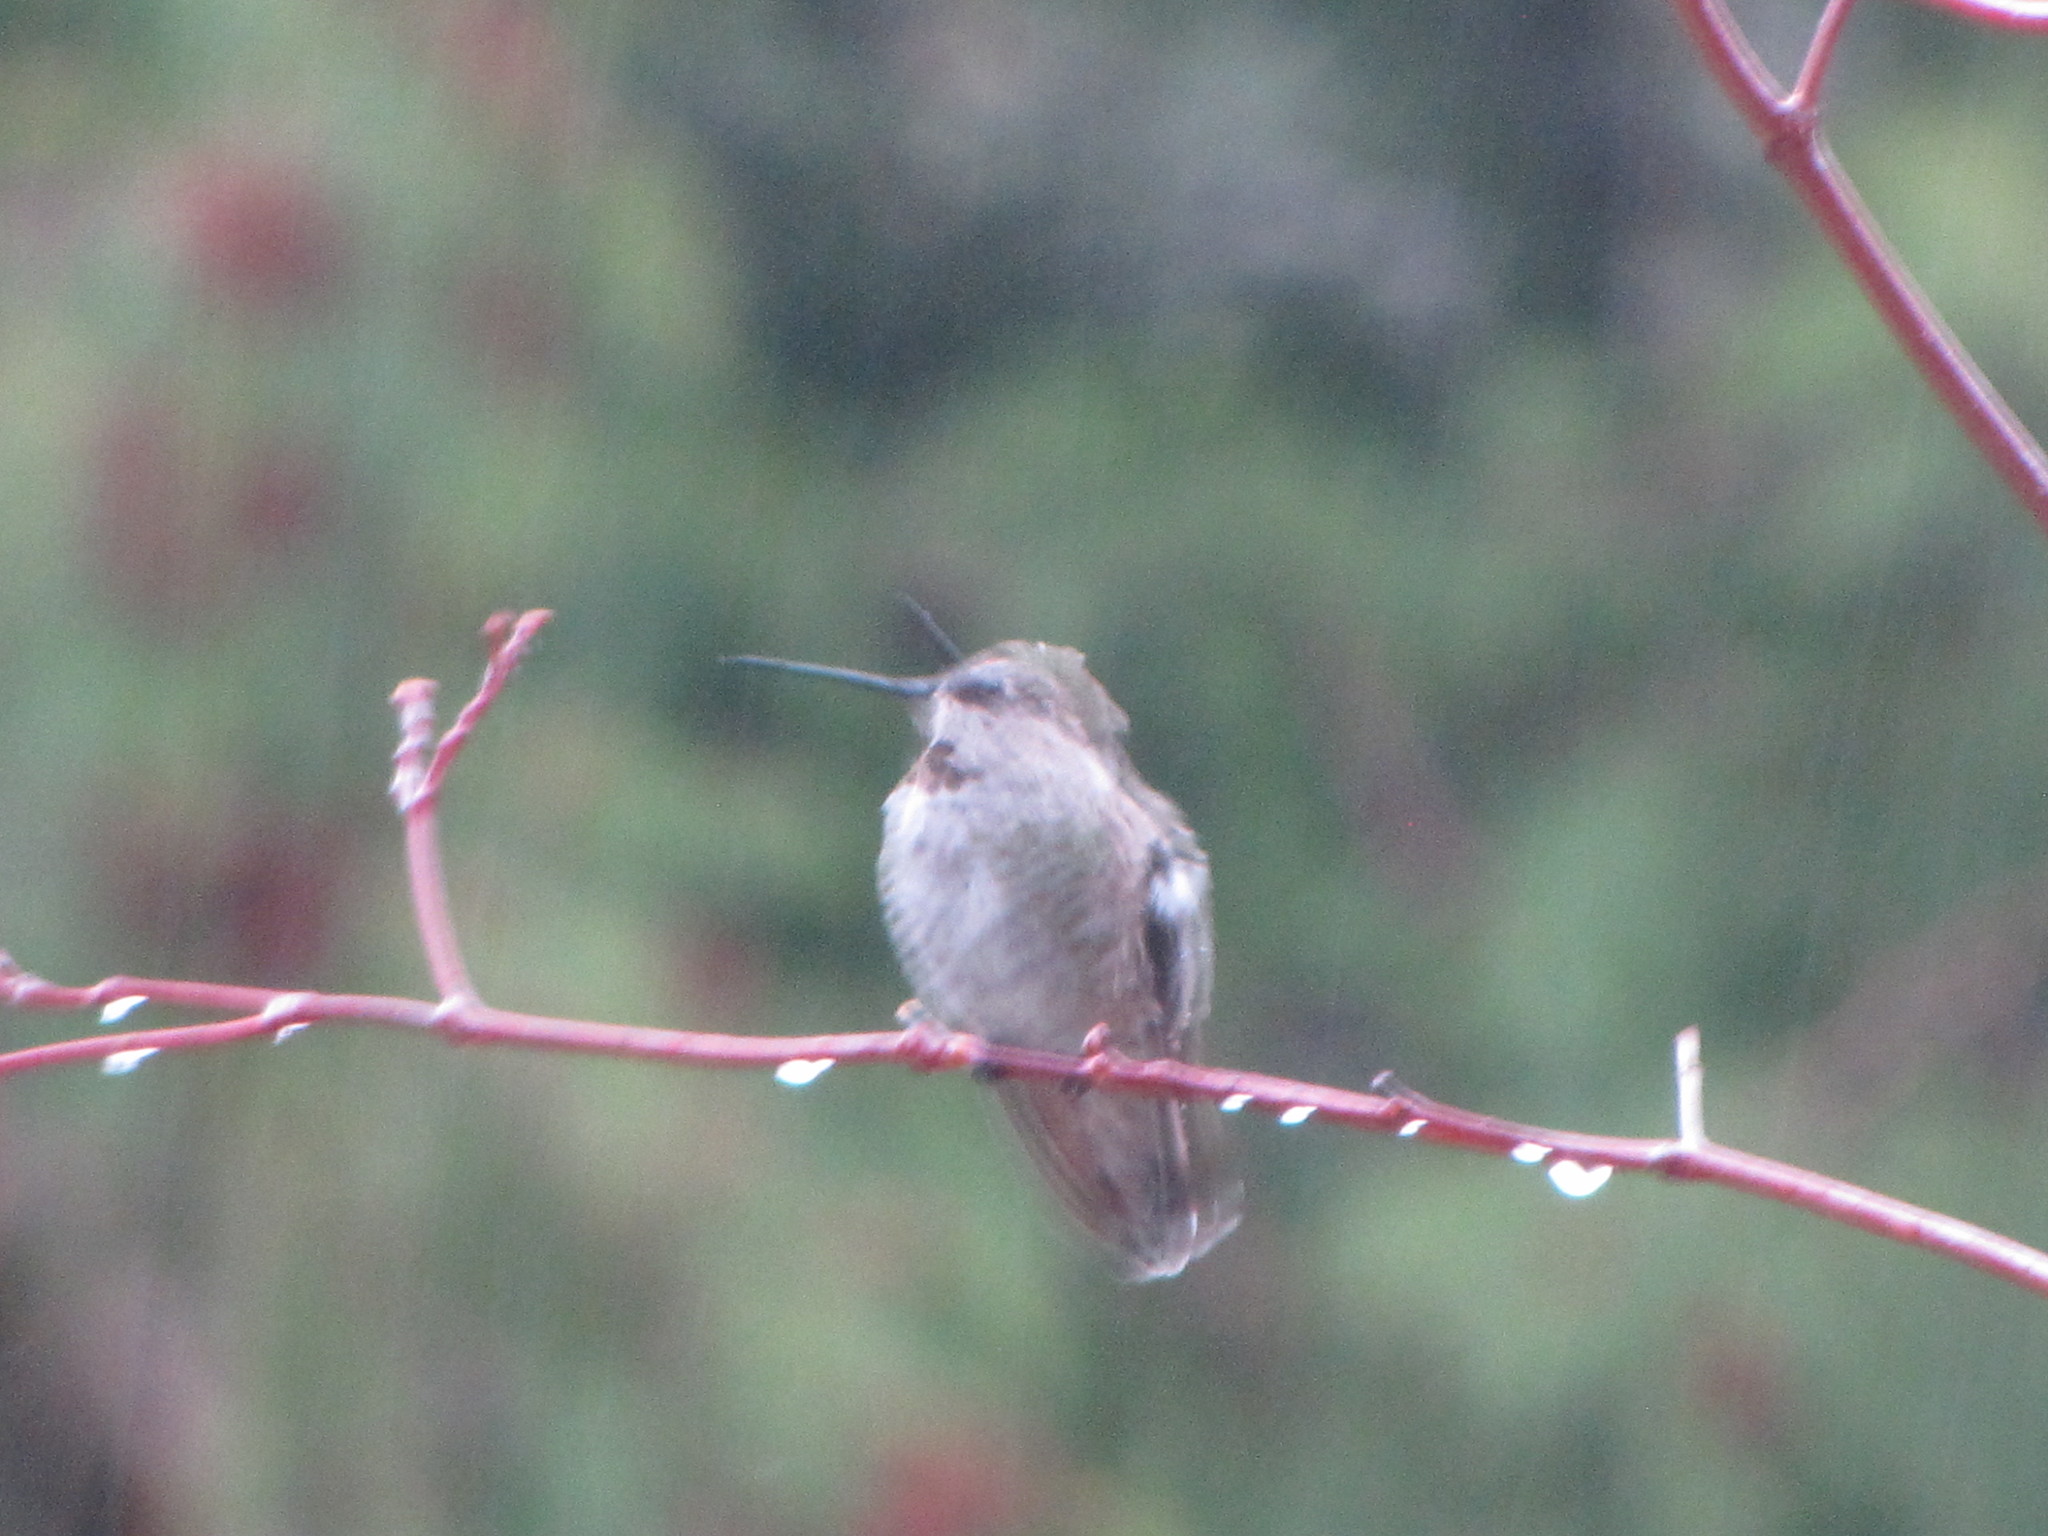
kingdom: Animalia
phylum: Chordata
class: Aves
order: Apodiformes
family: Trochilidae
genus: Calypte
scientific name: Calypte anna
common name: Anna's hummingbird
